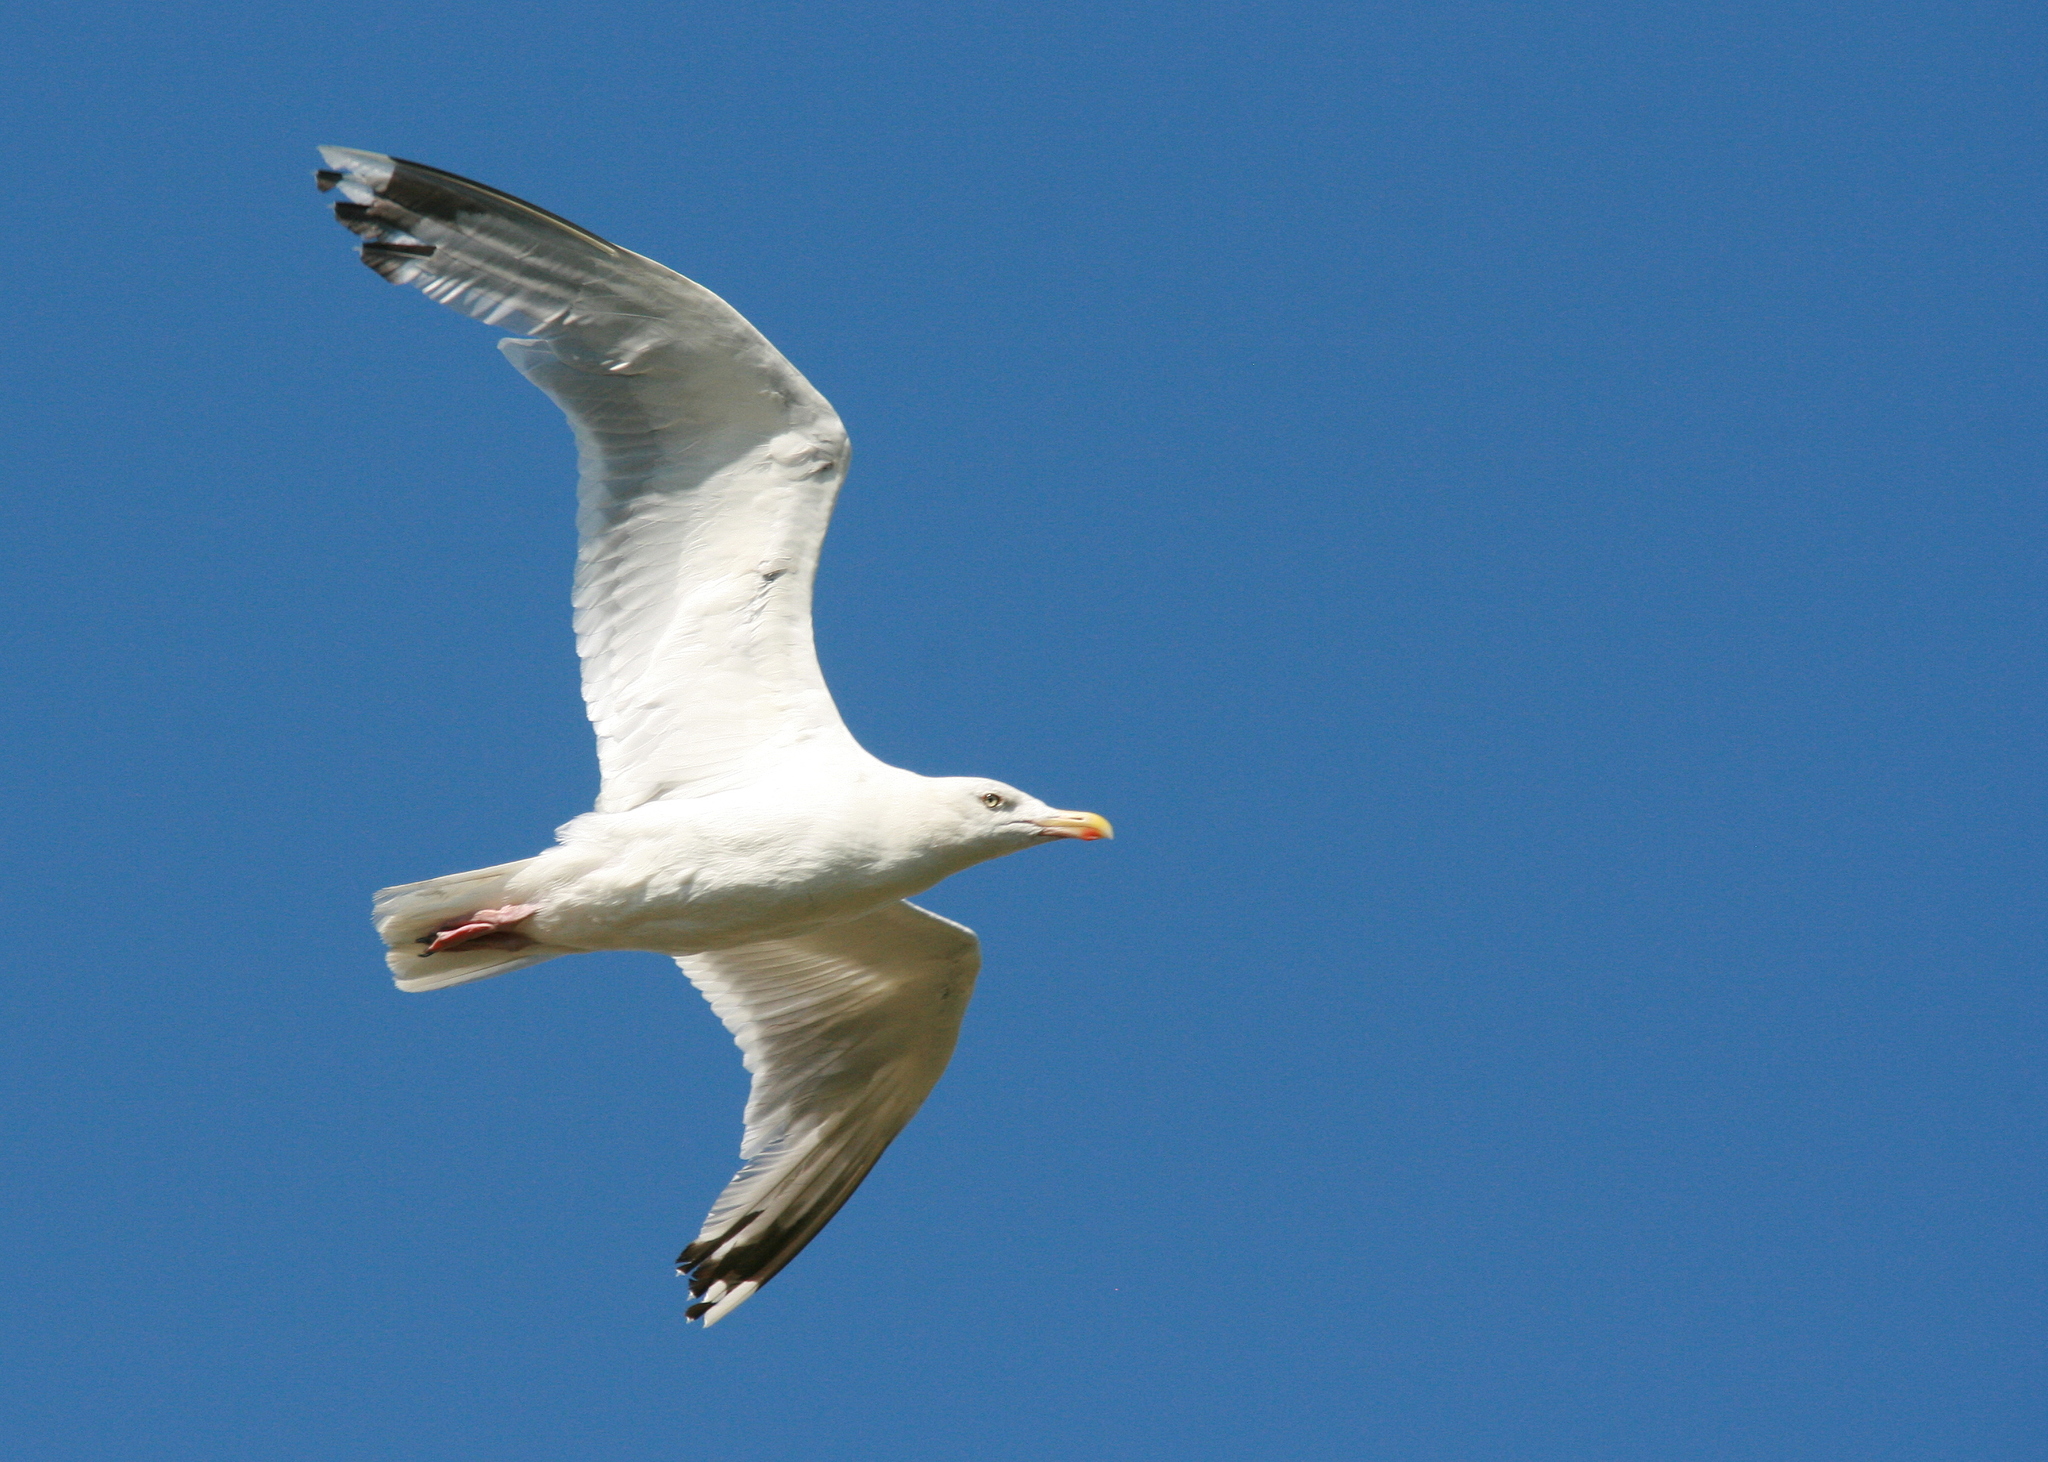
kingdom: Animalia
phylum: Chordata
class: Aves
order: Charadriiformes
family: Laridae
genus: Larus
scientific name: Larus argentatus
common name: Herring gull
